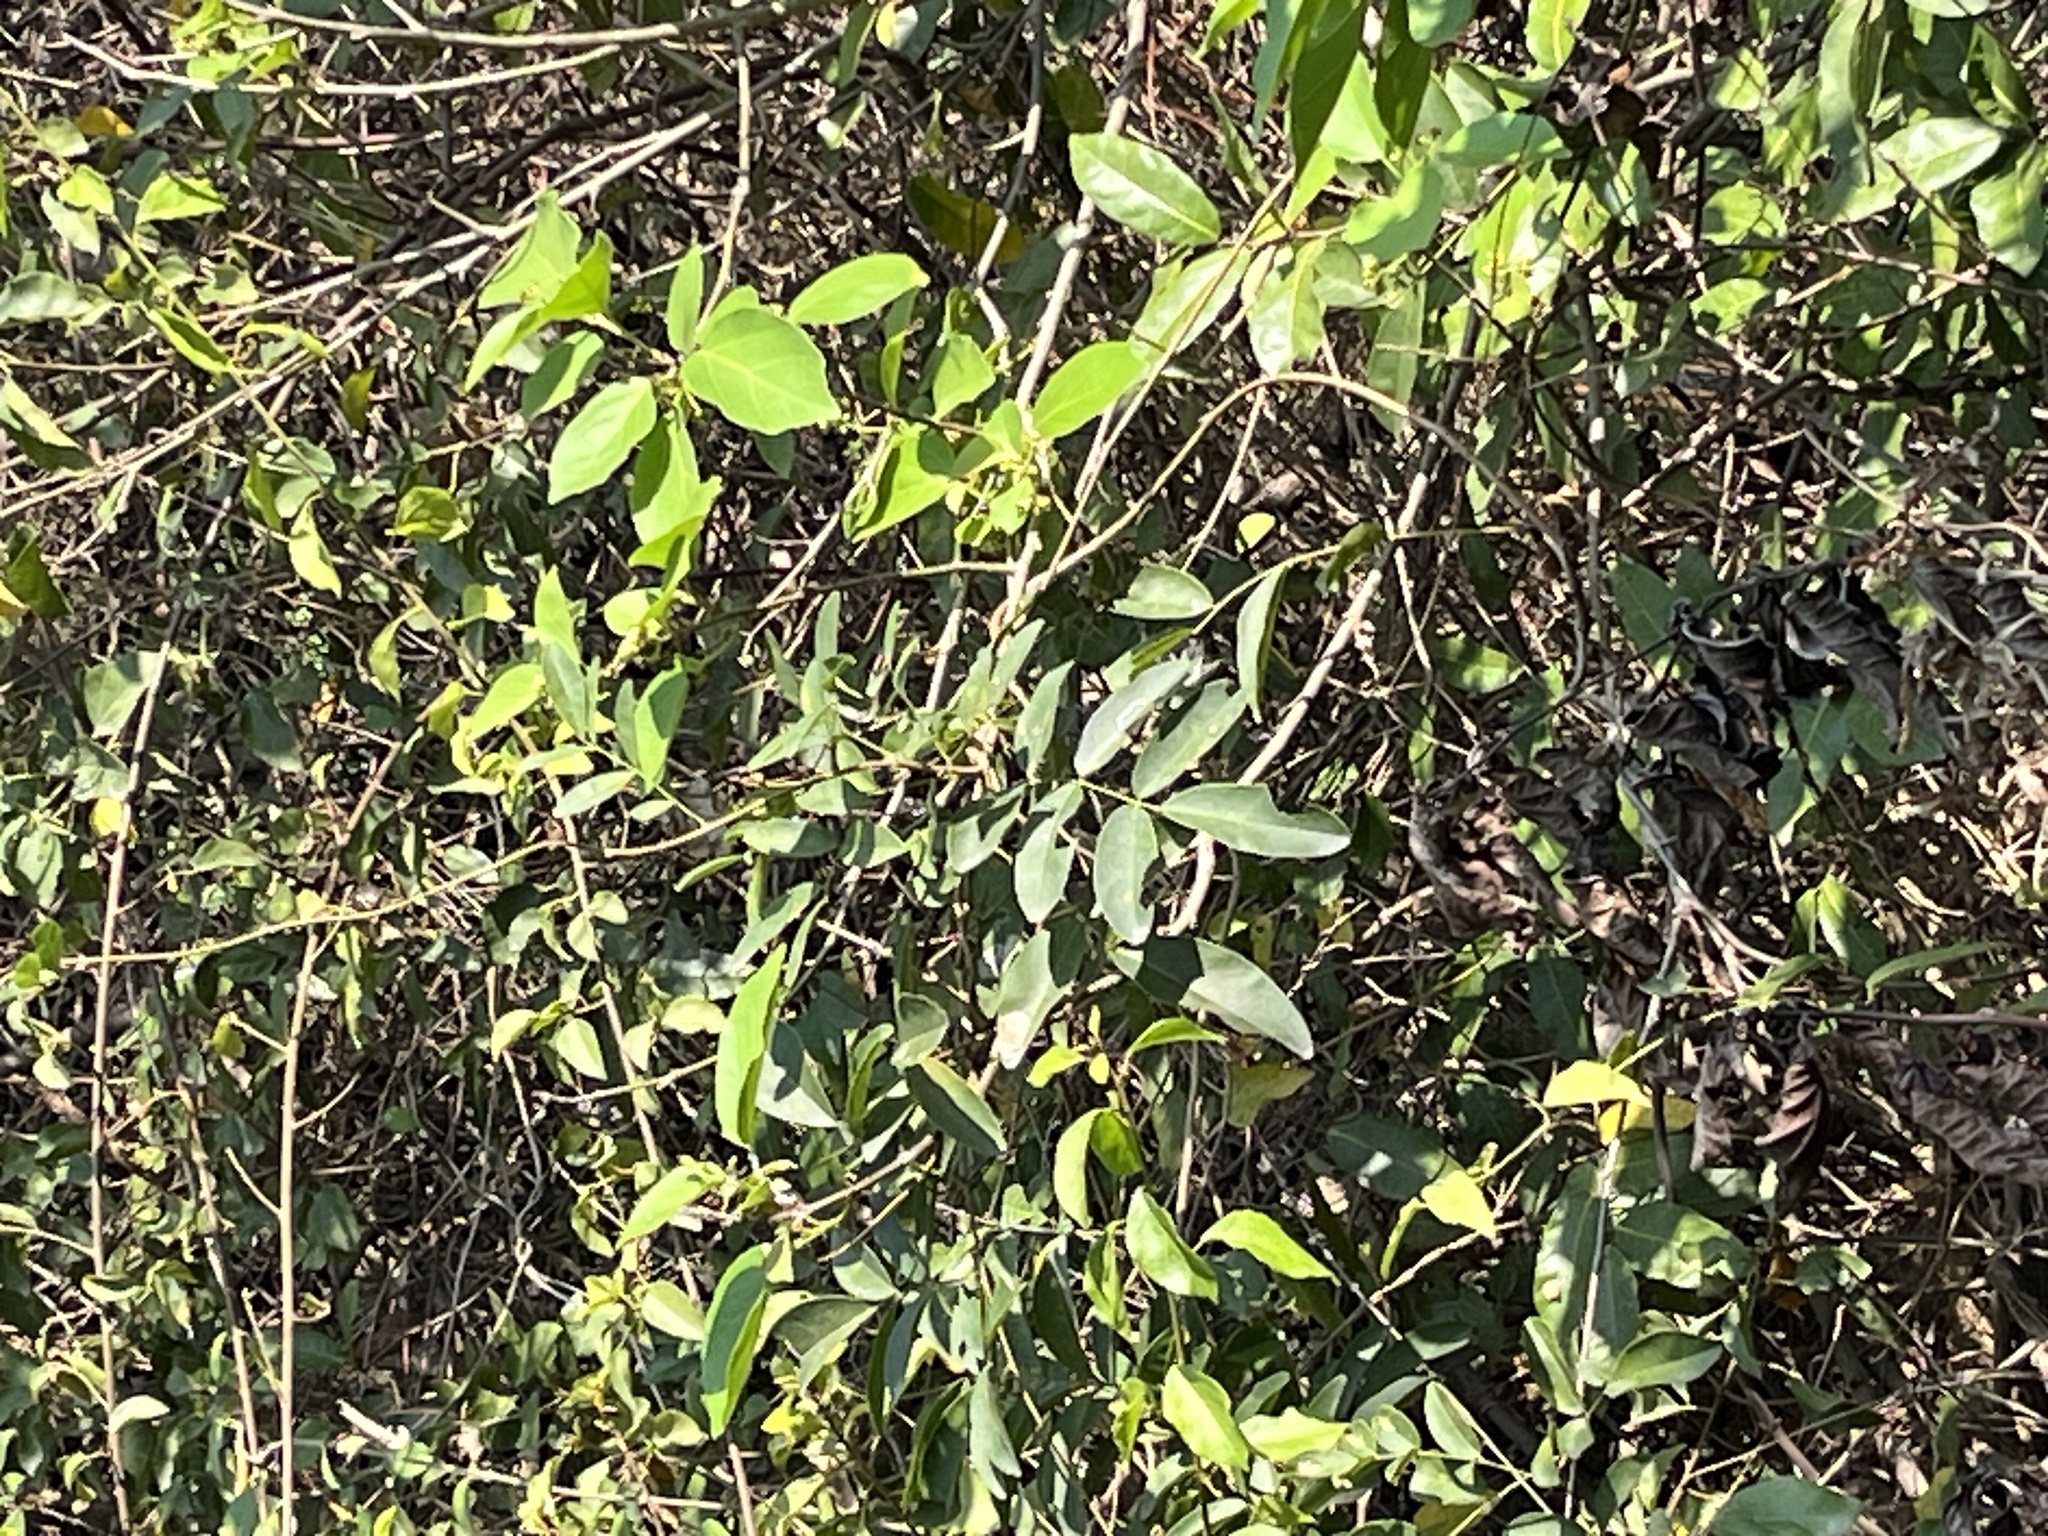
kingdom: Plantae
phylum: Tracheophyta
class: Magnoliopsida
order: Fabales
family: Fabaceae
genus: Wisteriopsis
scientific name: Wisteriopsis reticulata
